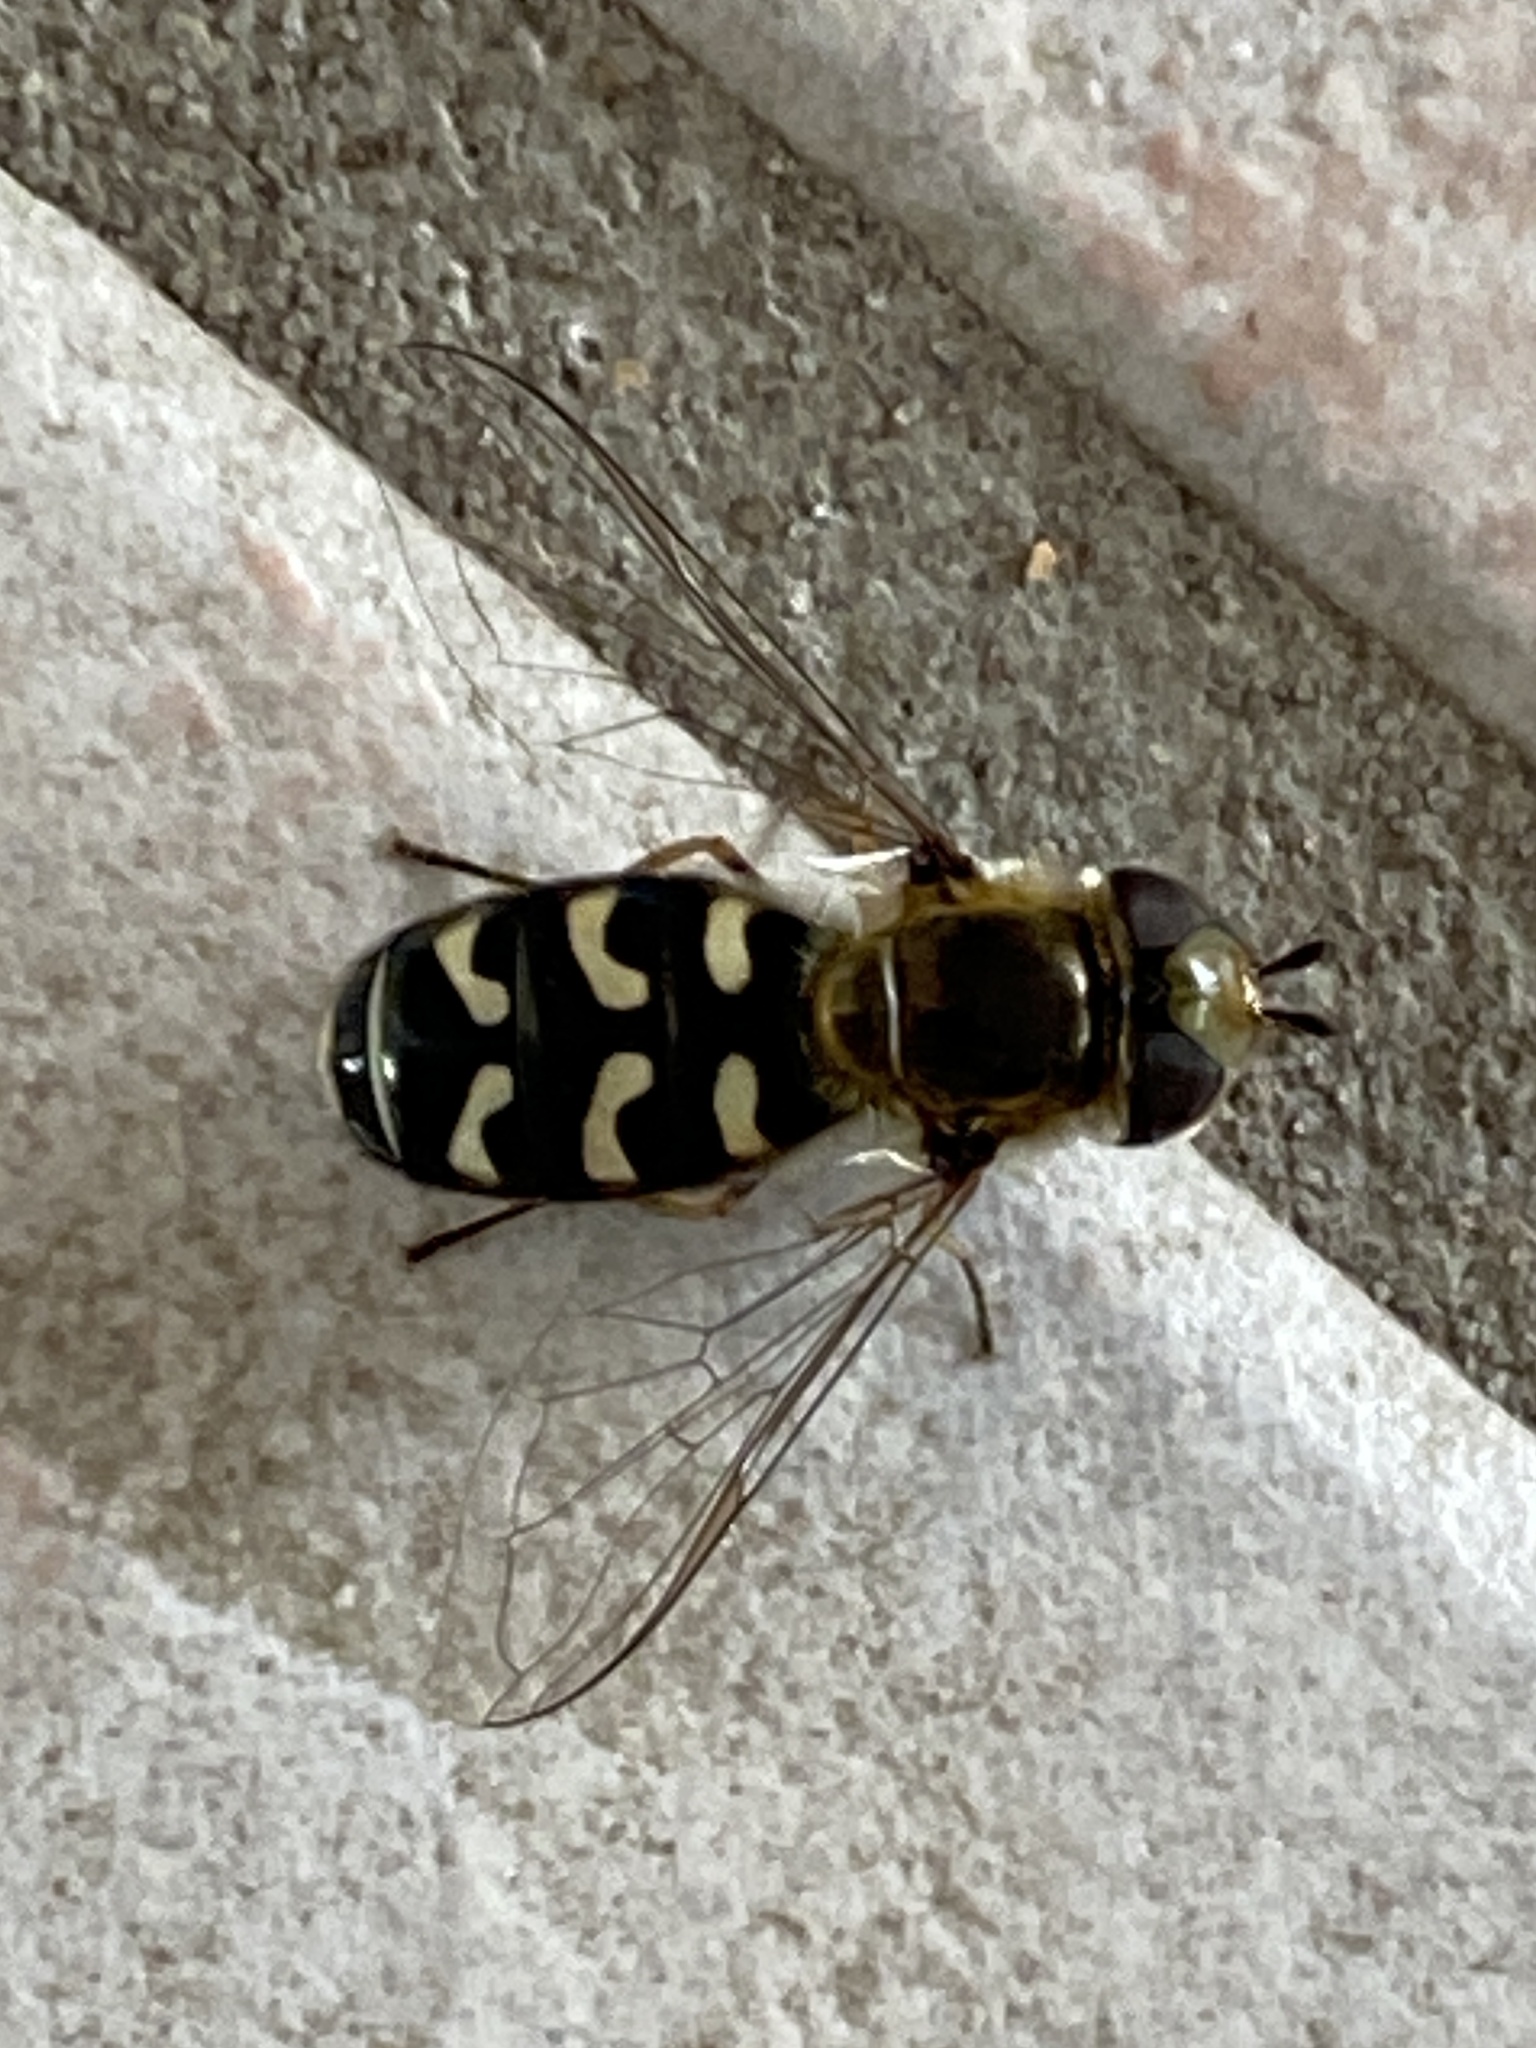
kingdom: Animalia
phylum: Arthropoda
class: Insecta
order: Diptera
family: Syrphidae
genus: Scaeva
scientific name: Scaeva pyrastri
